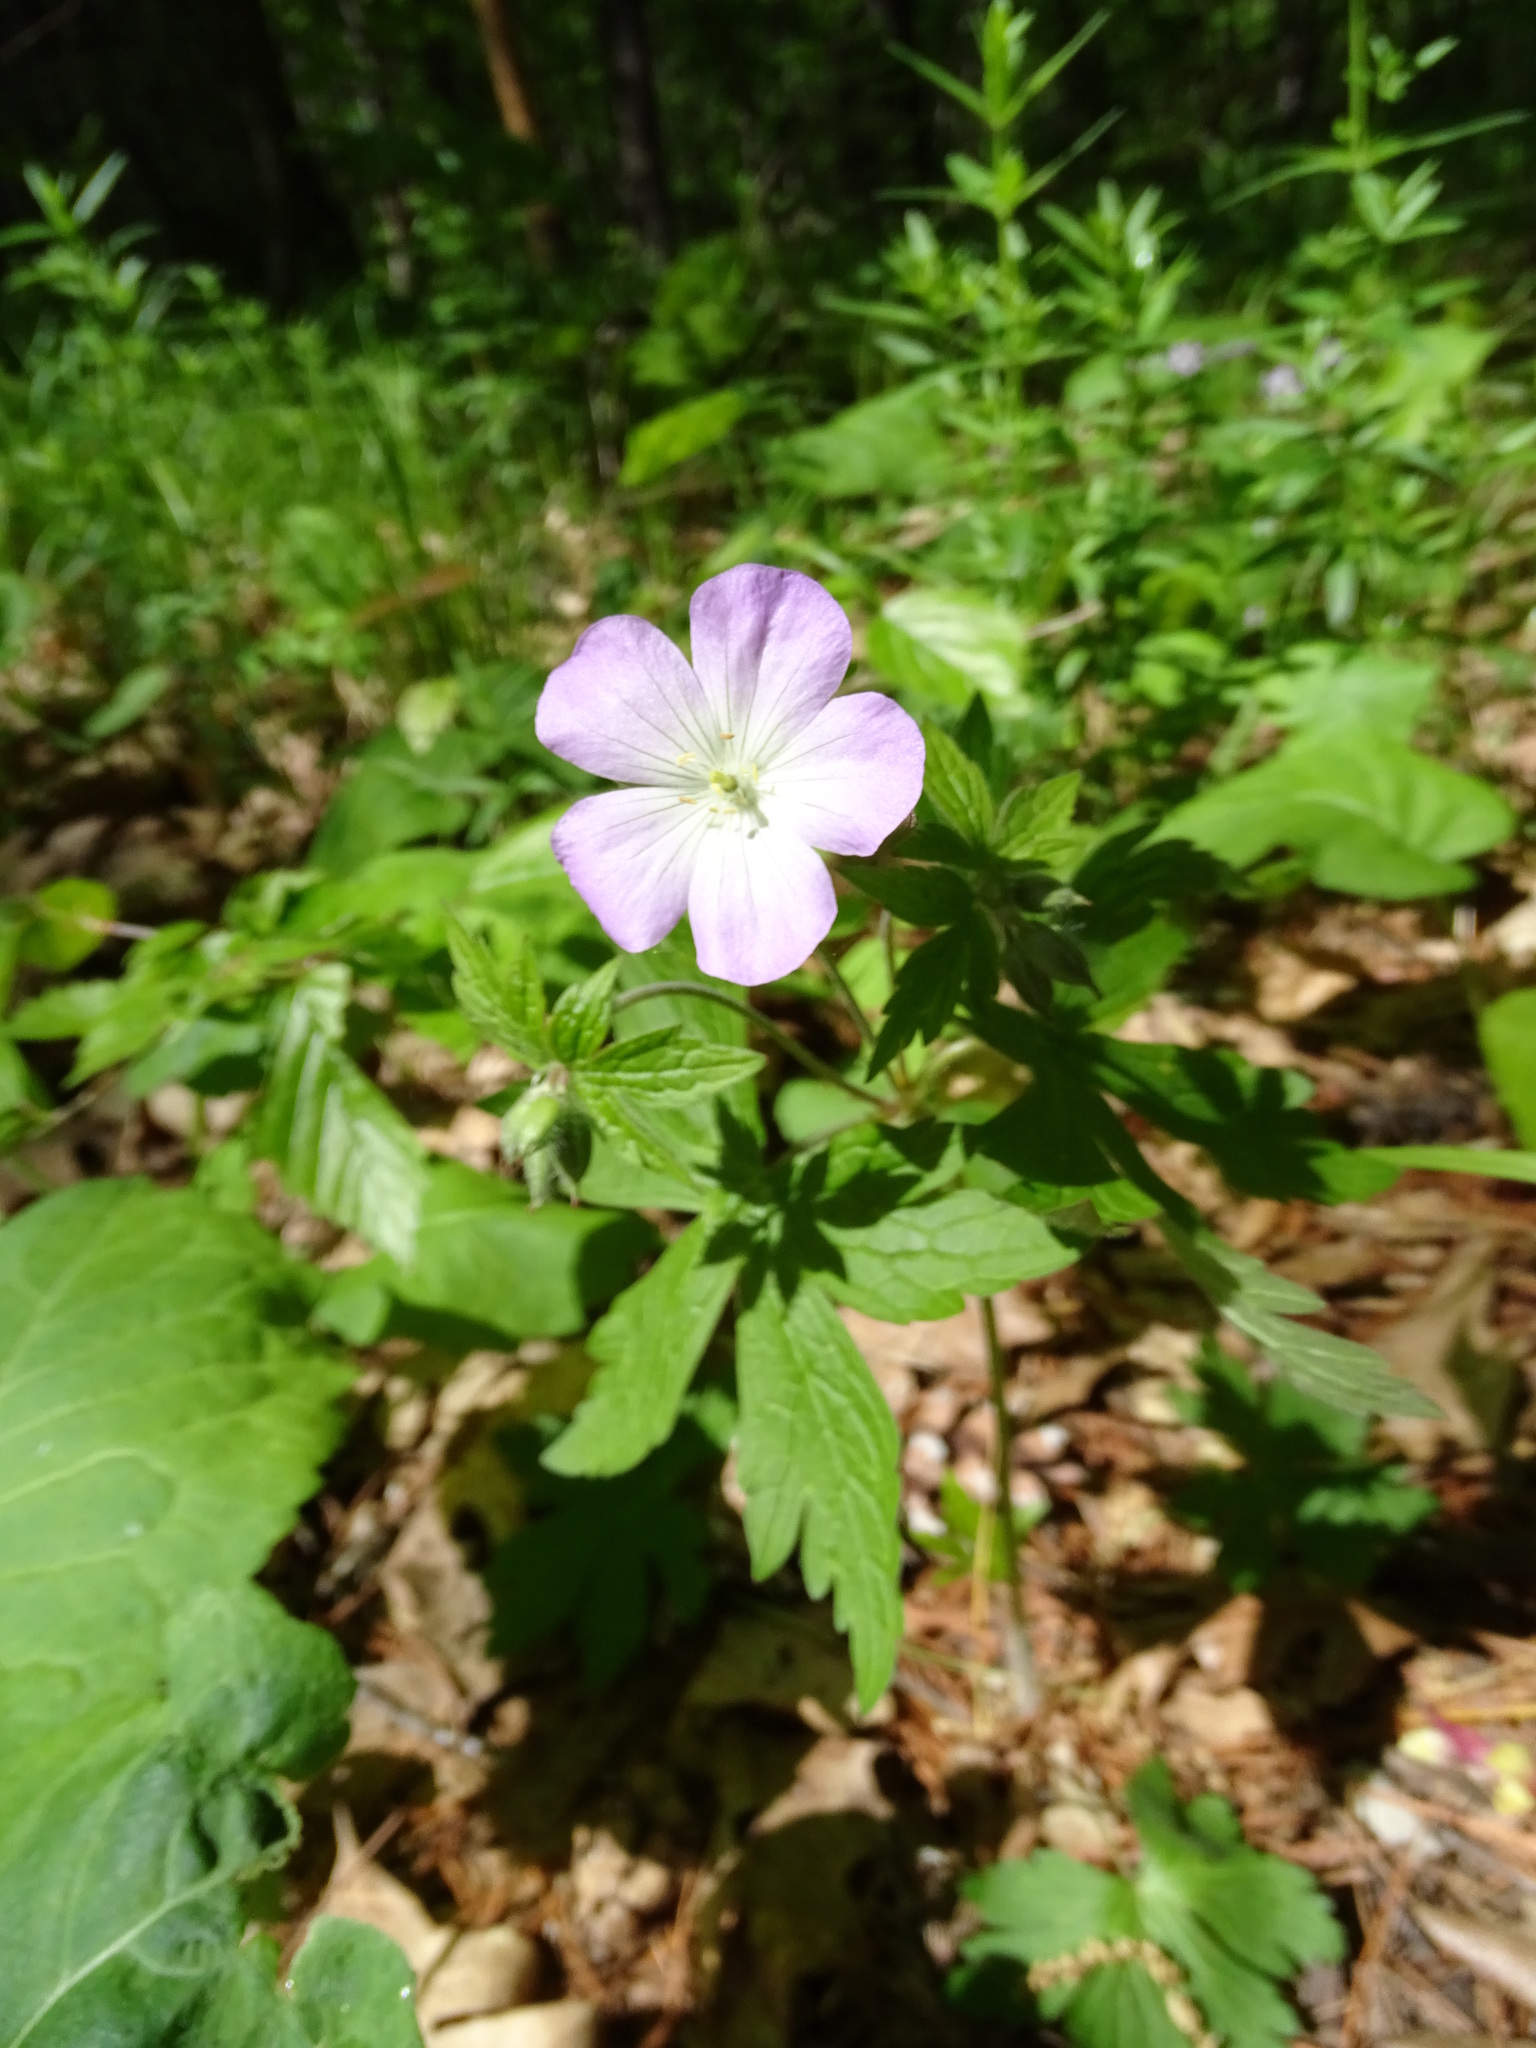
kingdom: Plantae
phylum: Tracheophyta
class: Magnoliopsida
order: Geraniales
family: Geraniaceae
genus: Geranium
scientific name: Geranium maculatum
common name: Spotted geranium
